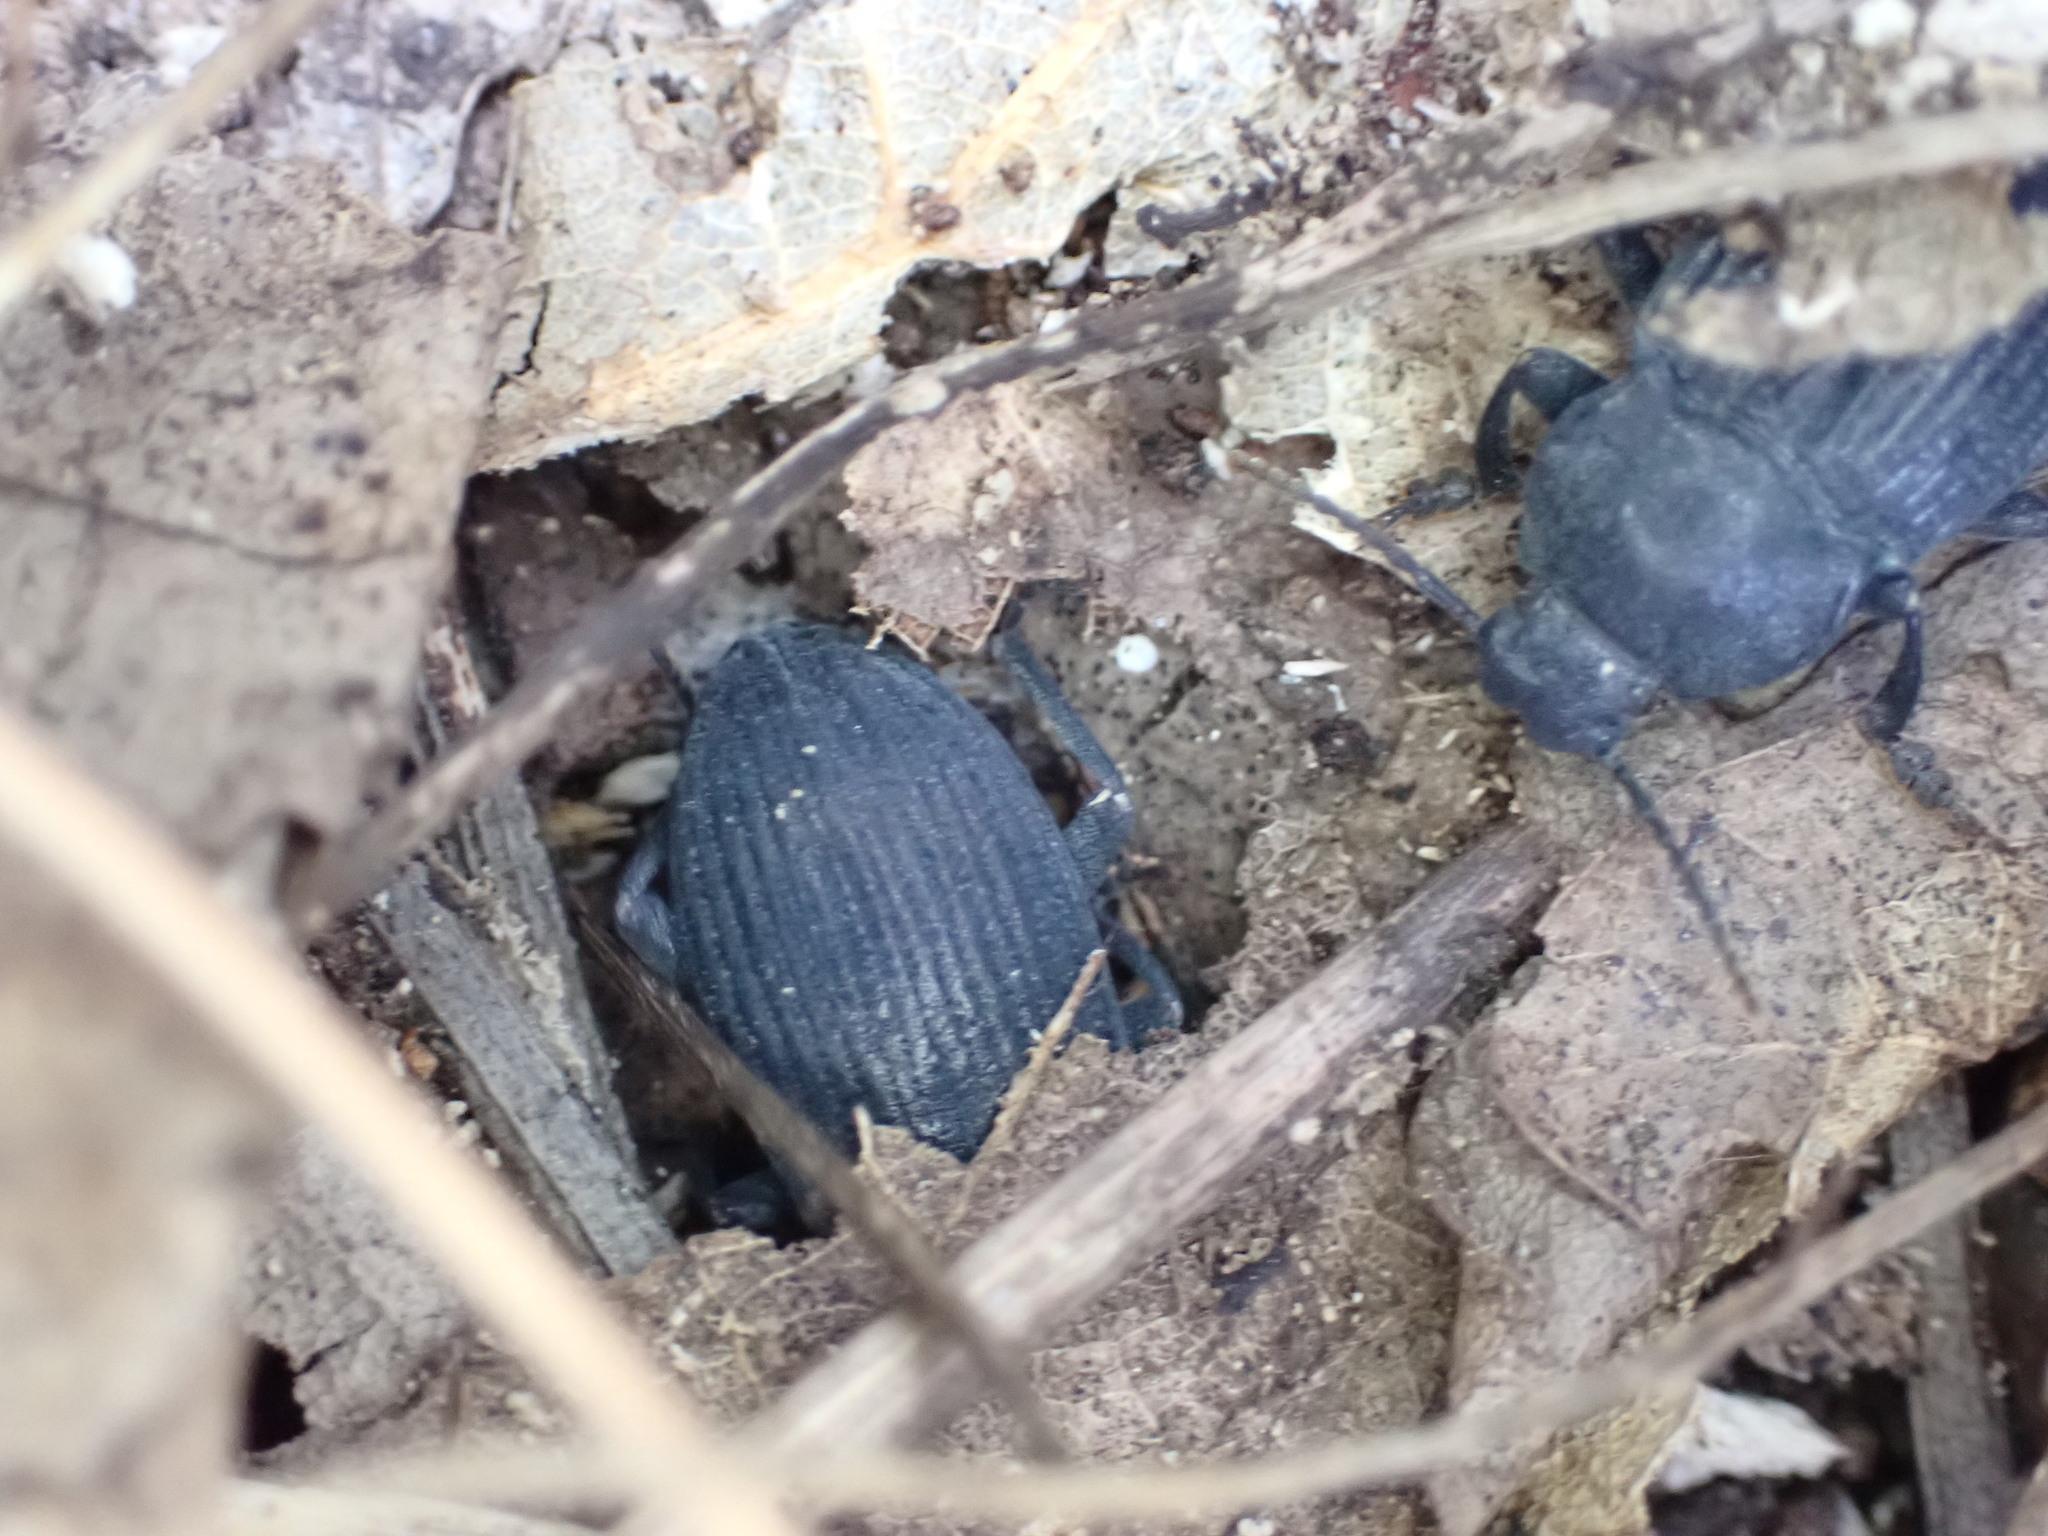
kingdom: Animalia
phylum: Arthropoda
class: Insecta
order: Coleoptera
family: Tenebrionidae
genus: Dendarus
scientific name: Dendarus coarcticollis
